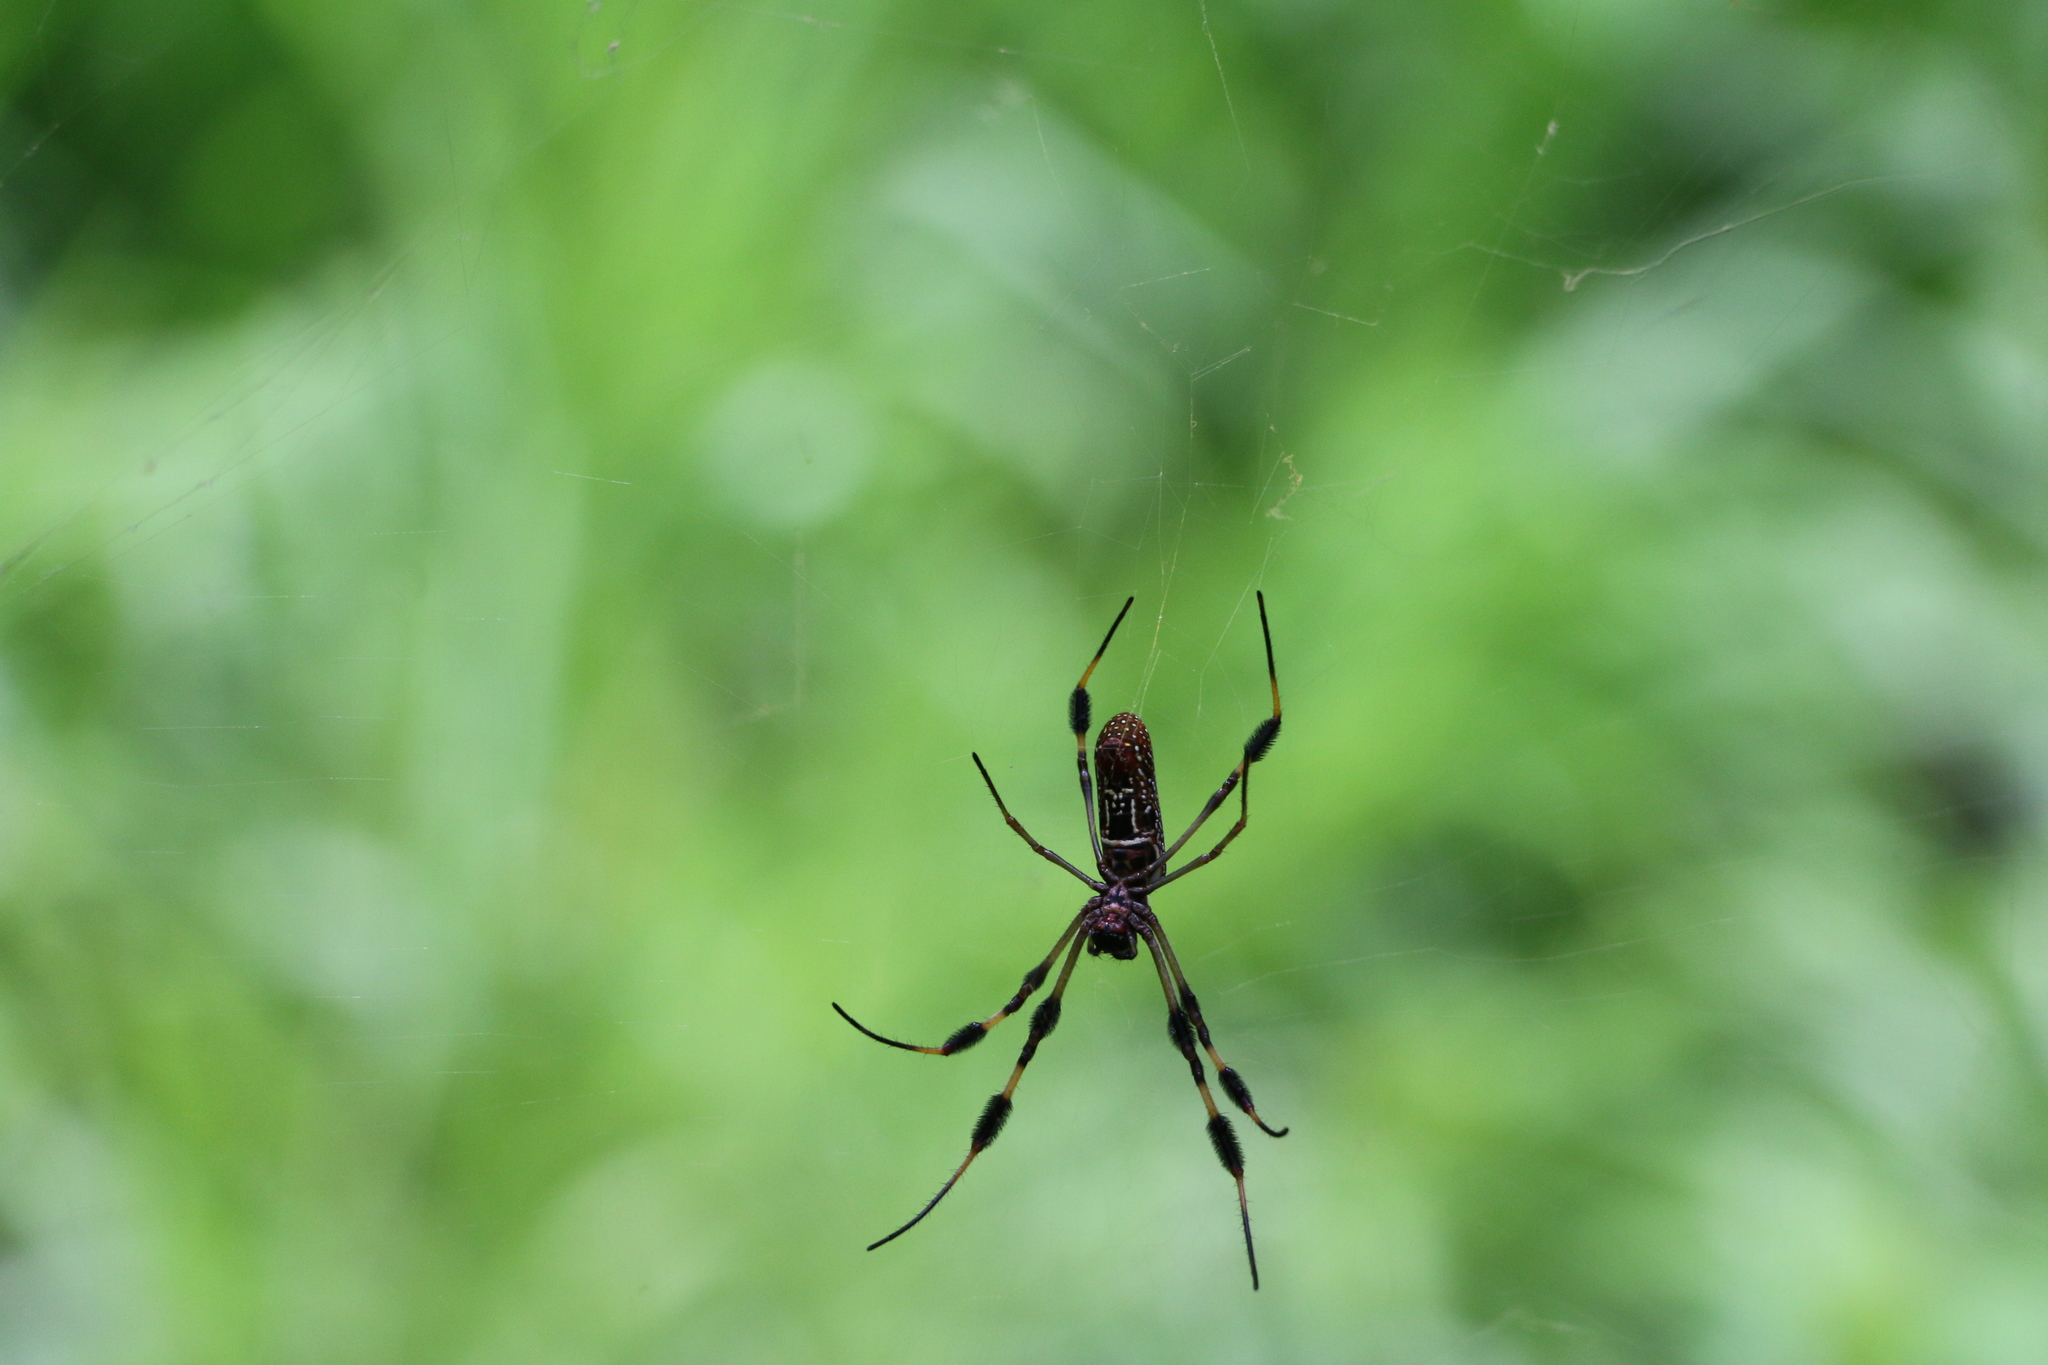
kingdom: Animalia
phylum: Arthropoda
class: Arachnida
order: Araneae
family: Araneidae
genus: Trichonephila
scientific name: Trichonephila clavipes
